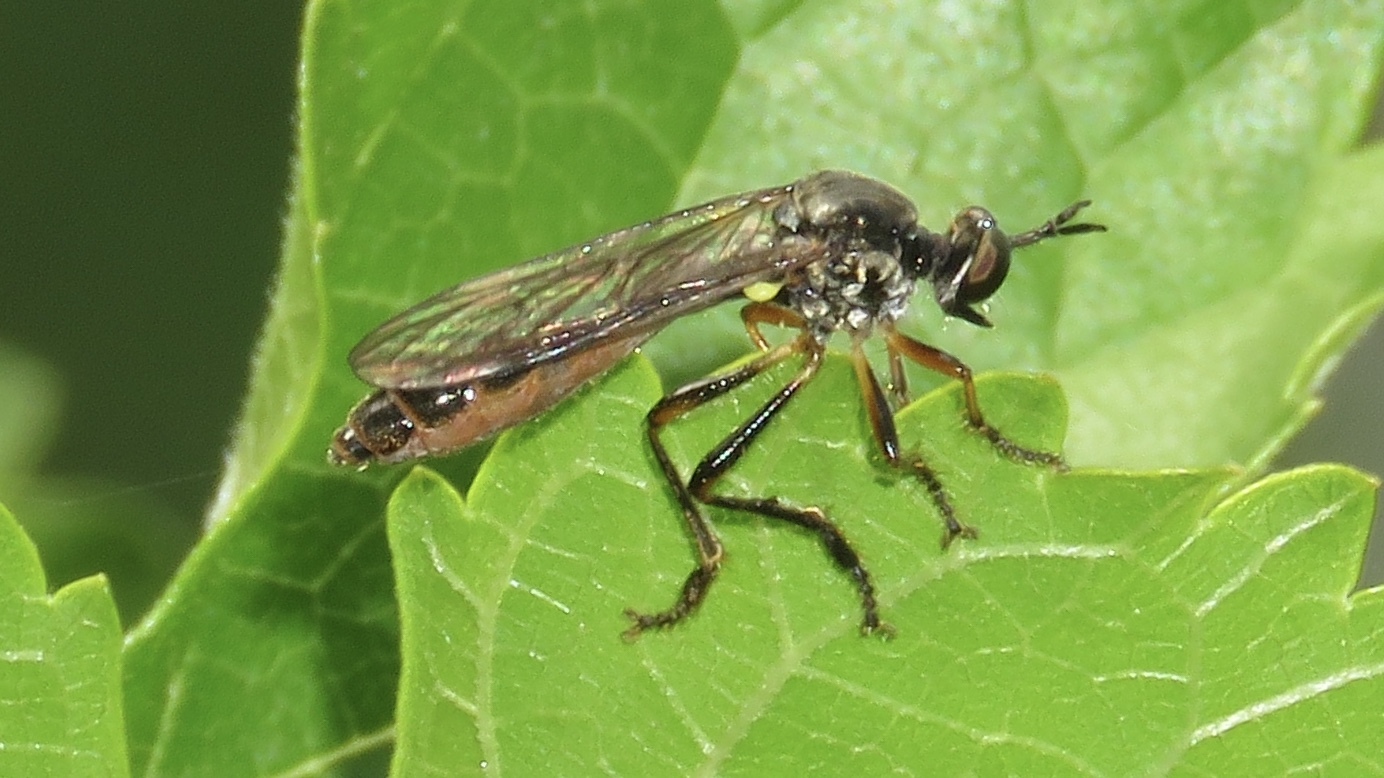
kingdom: Animalia
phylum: Arthropoda
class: Insecta
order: Diptera
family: Asilidae
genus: Dioctria
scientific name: Dioctria hyalipennis
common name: Stripe-legged robberfly
